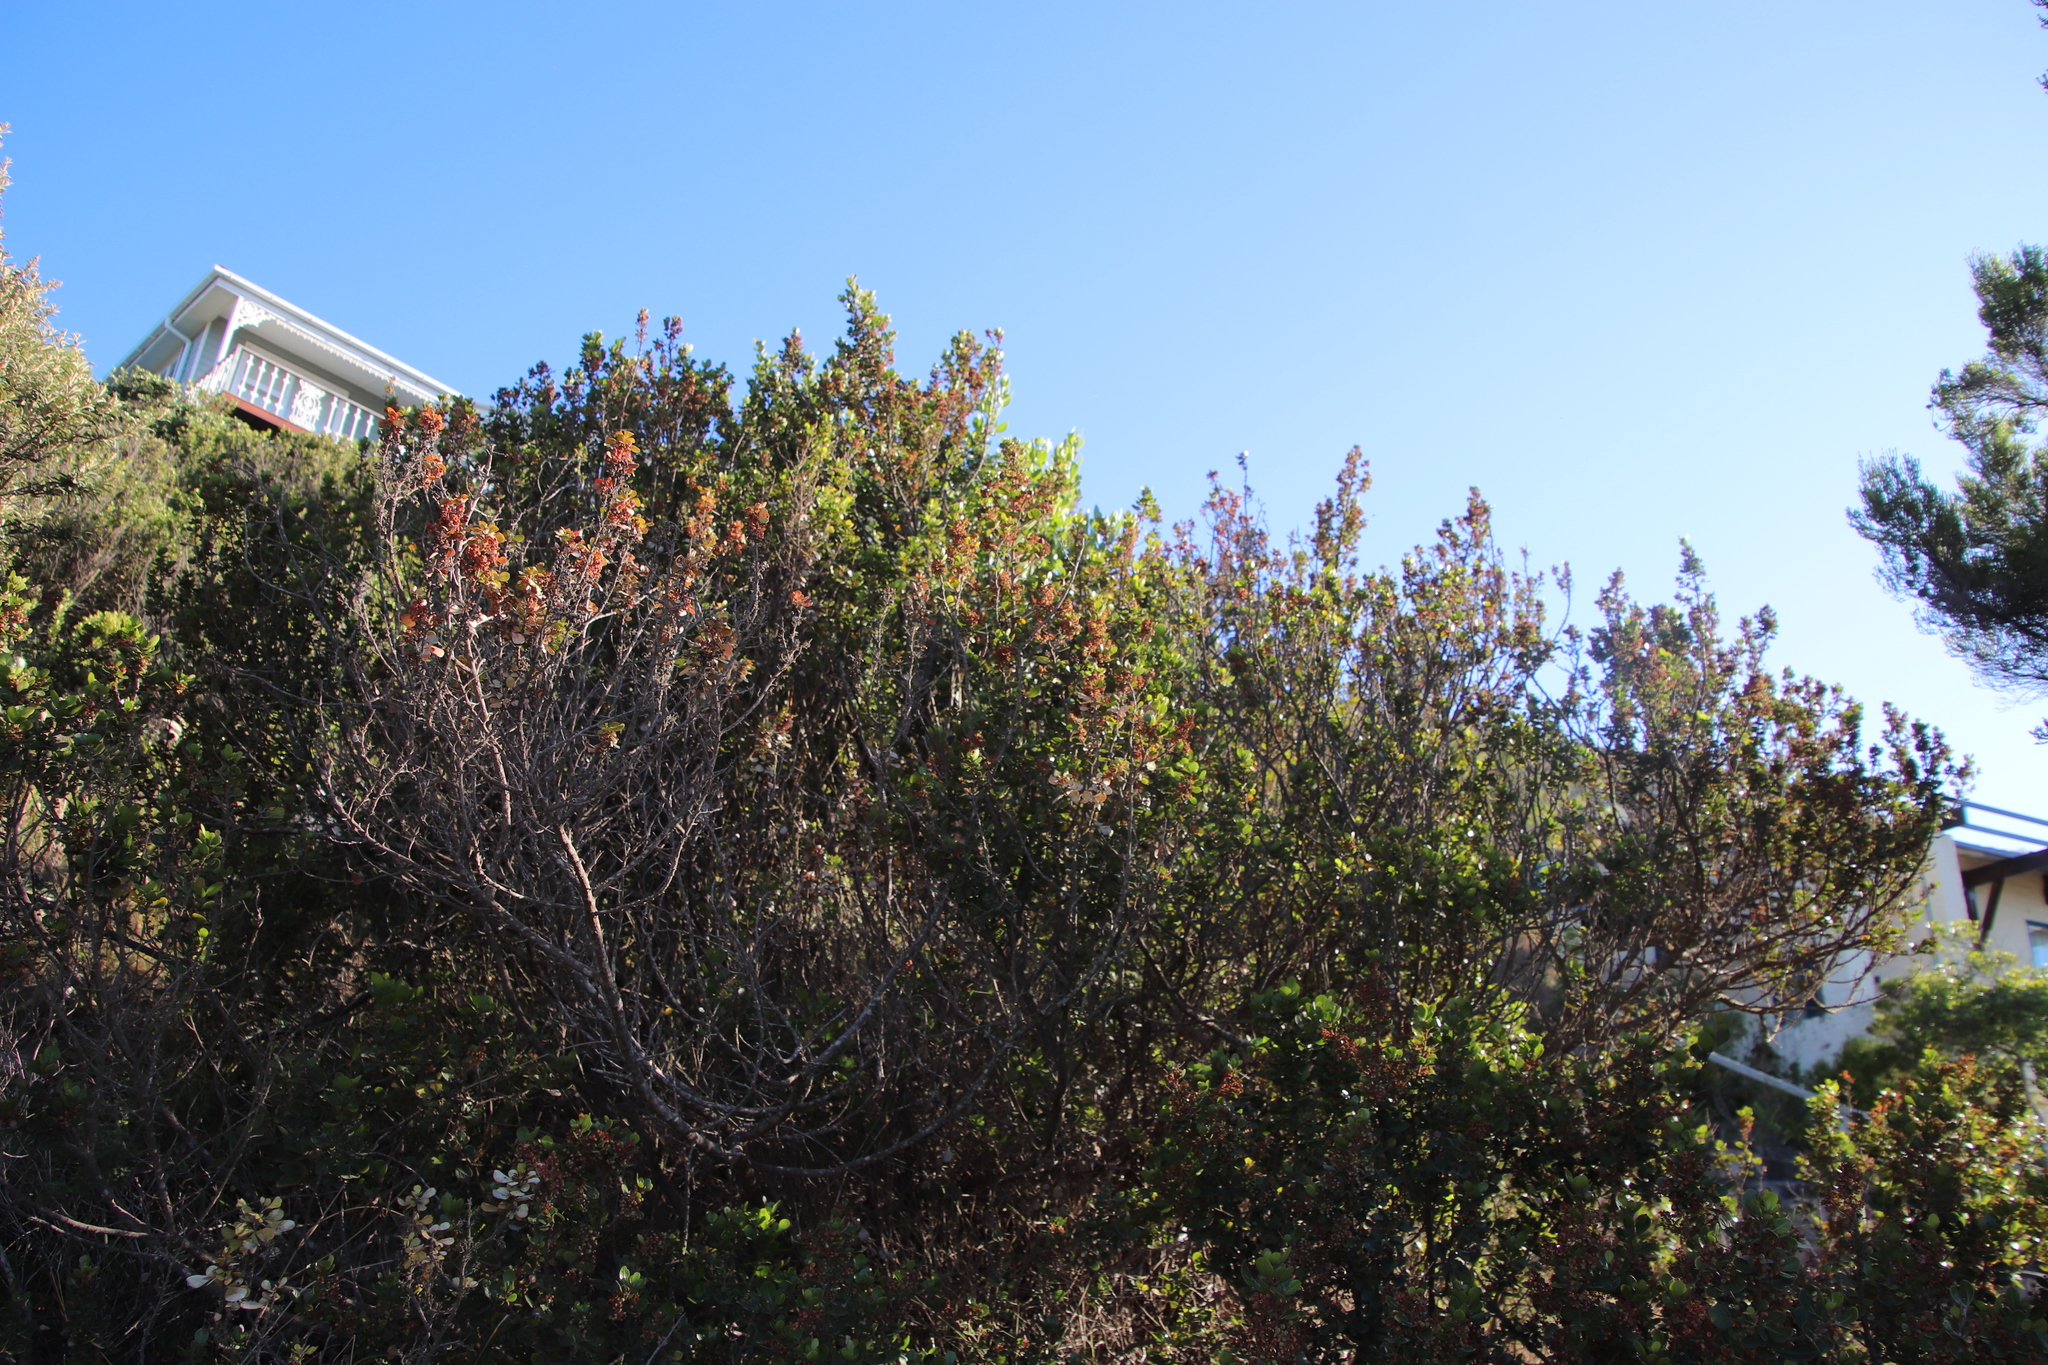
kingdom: Plantae
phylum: Tracheophyta
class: Magnoliopsida
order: Sapindales
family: Anacardiaceae
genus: Searsia
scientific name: Searsia lucida
